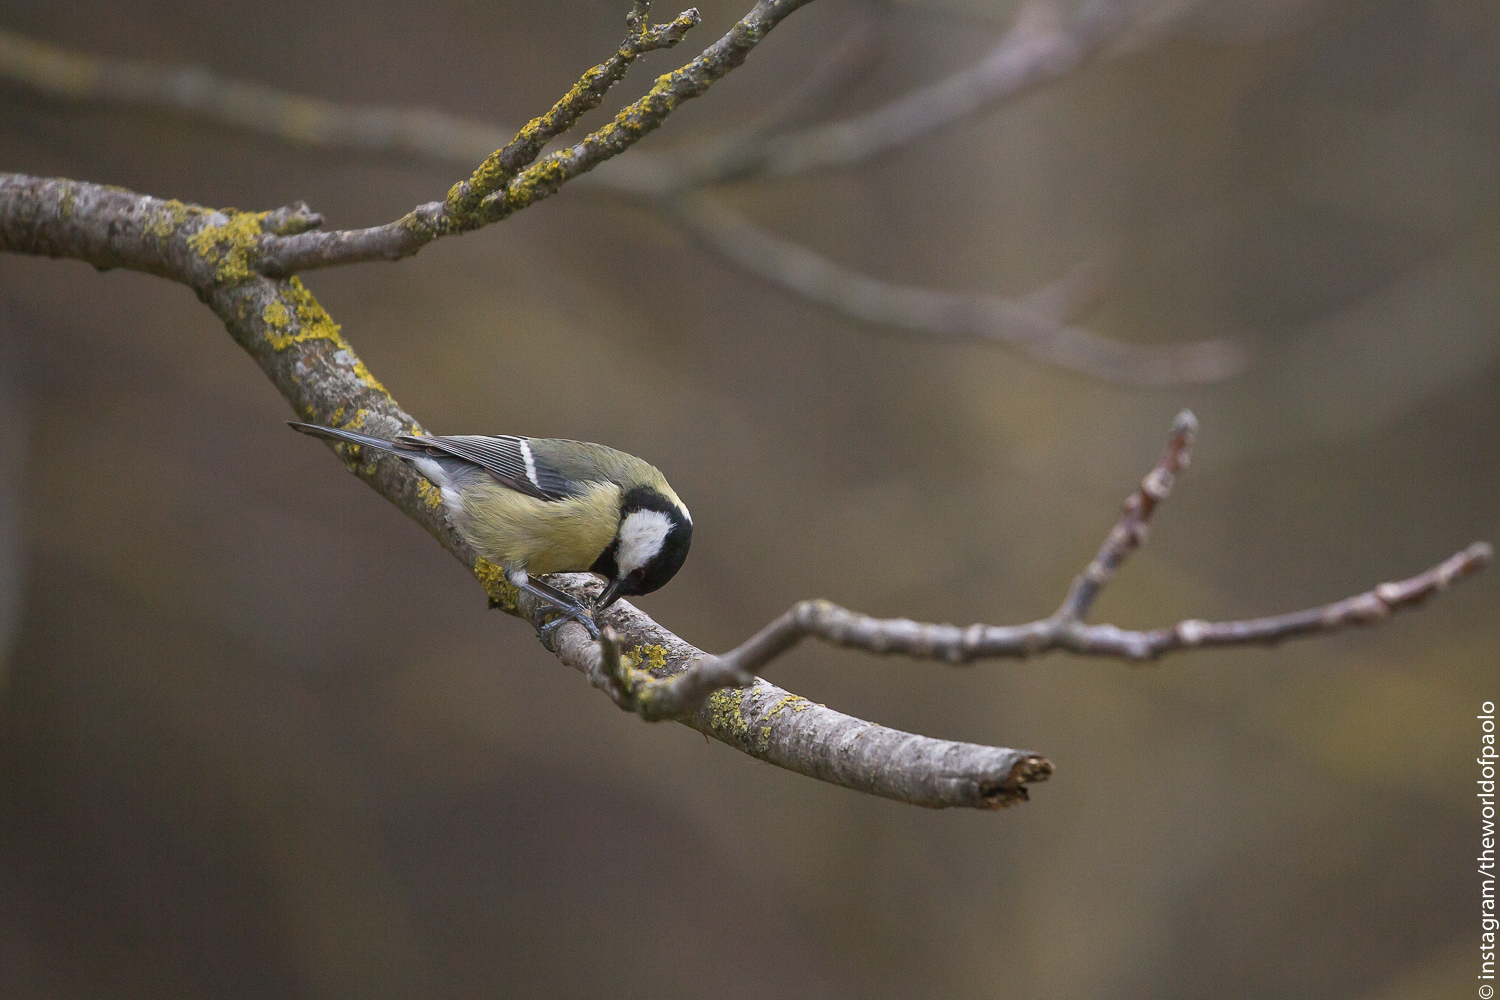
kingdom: Animalia
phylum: Chordata
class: Aves
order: Passeriformes
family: Paridae
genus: Parus
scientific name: Parus major
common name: Great tit
